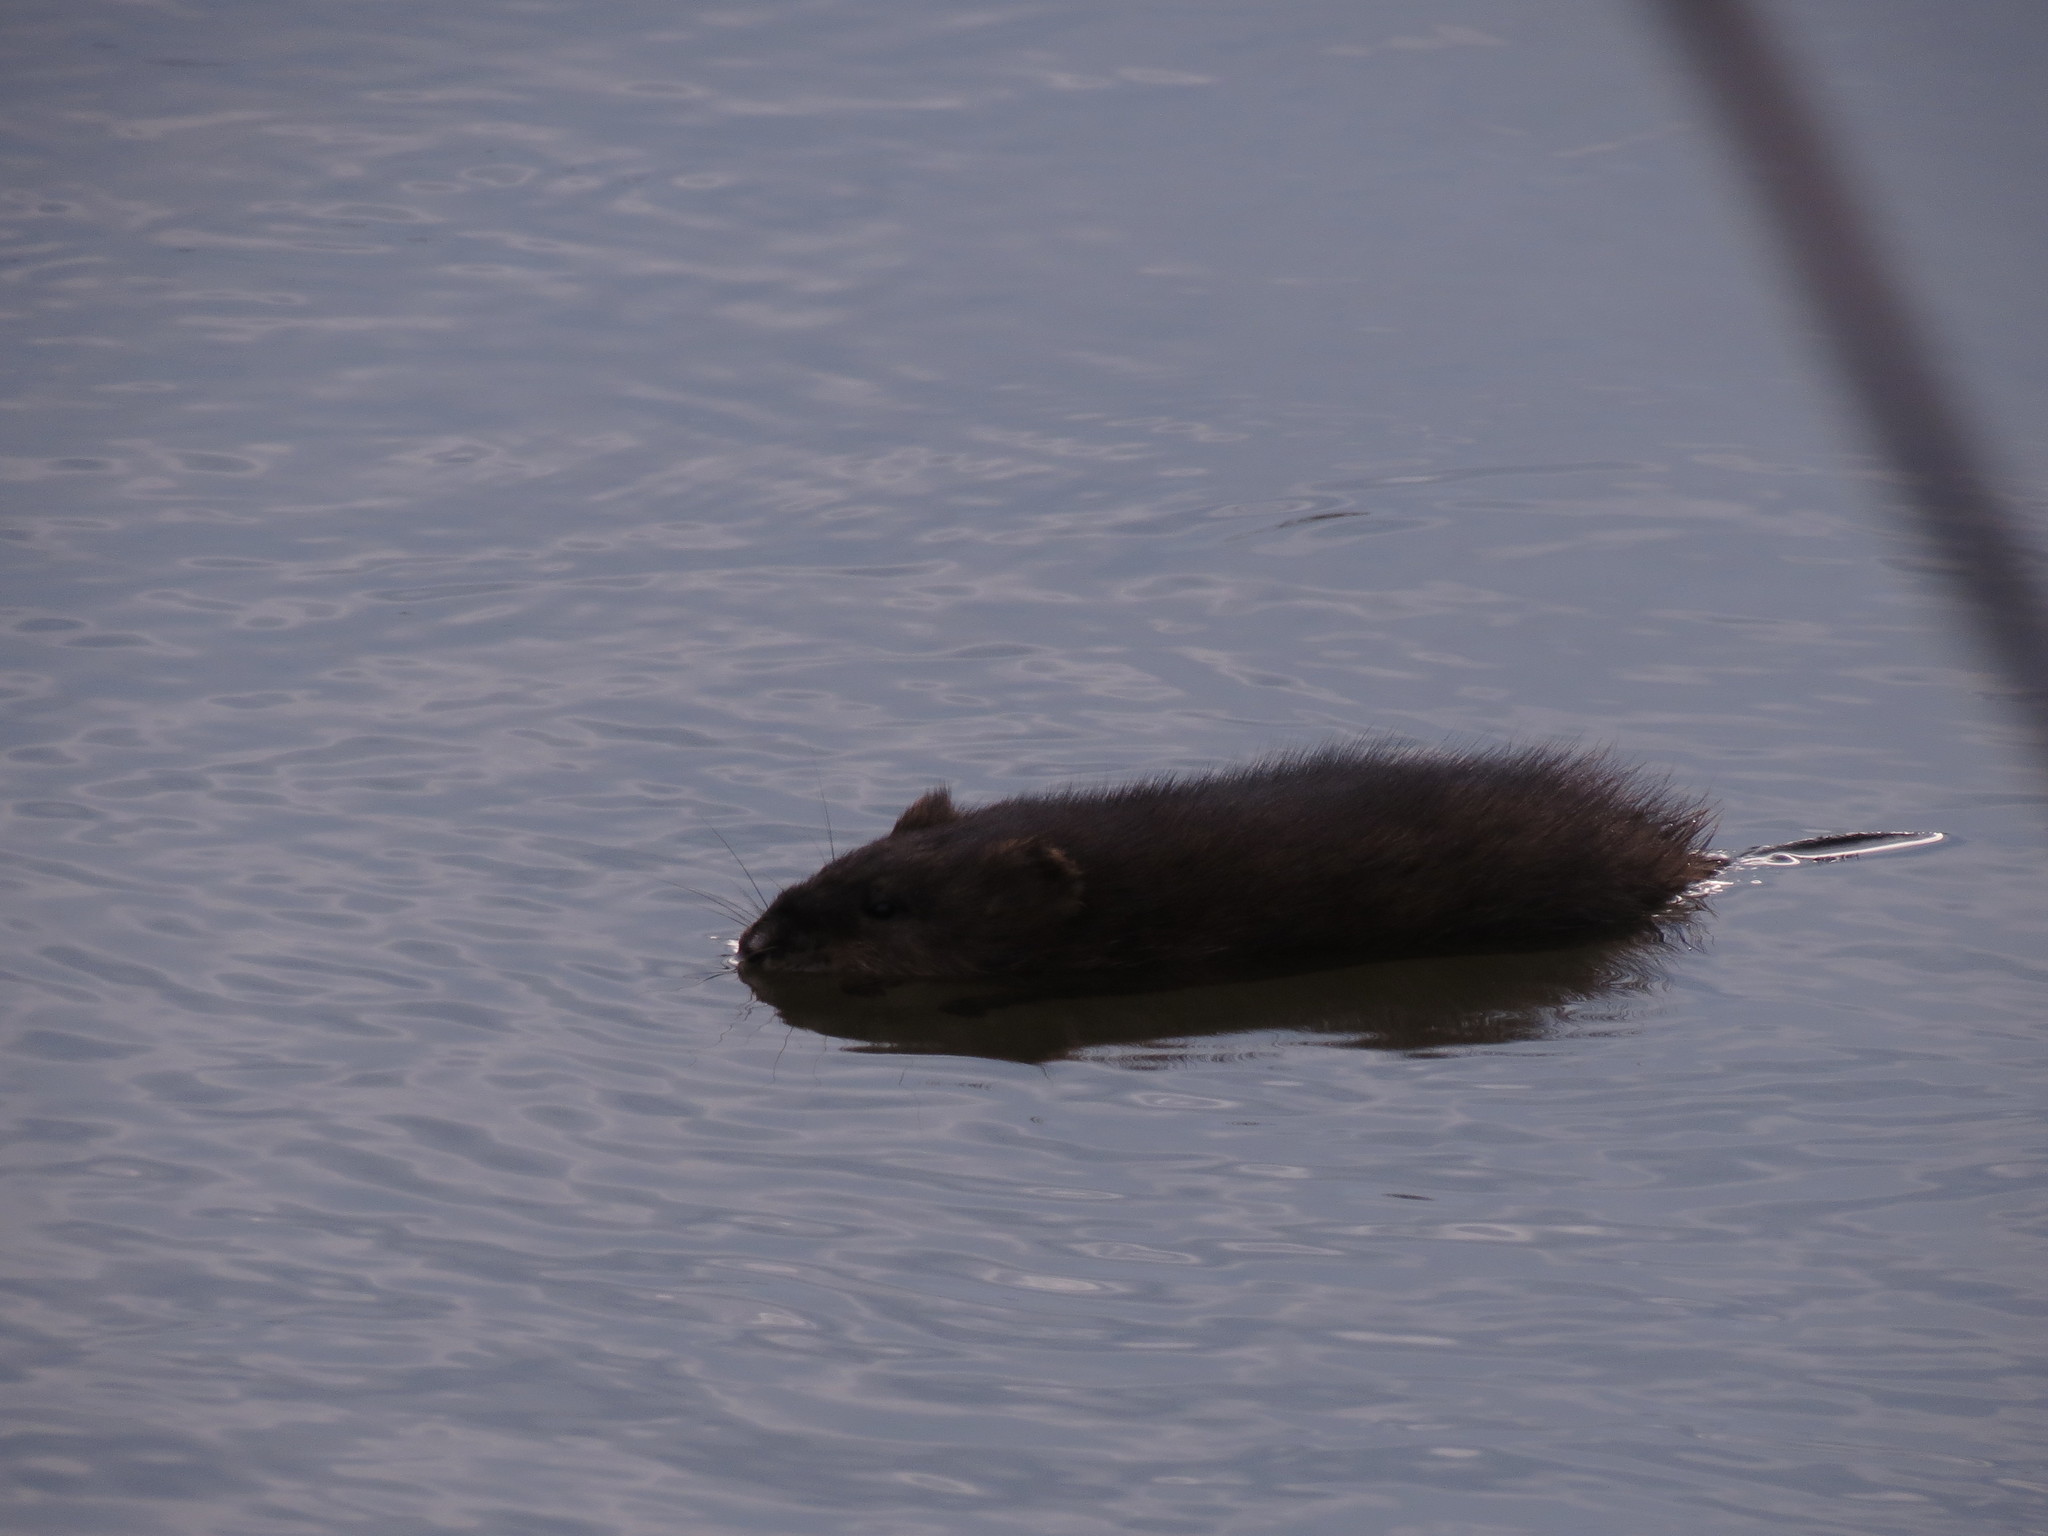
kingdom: Animalia
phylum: Chordata
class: Mammalia
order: Rodentia
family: Cricetidae
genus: Ondatra
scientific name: Ondatra zibethicus
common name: Muskrat
